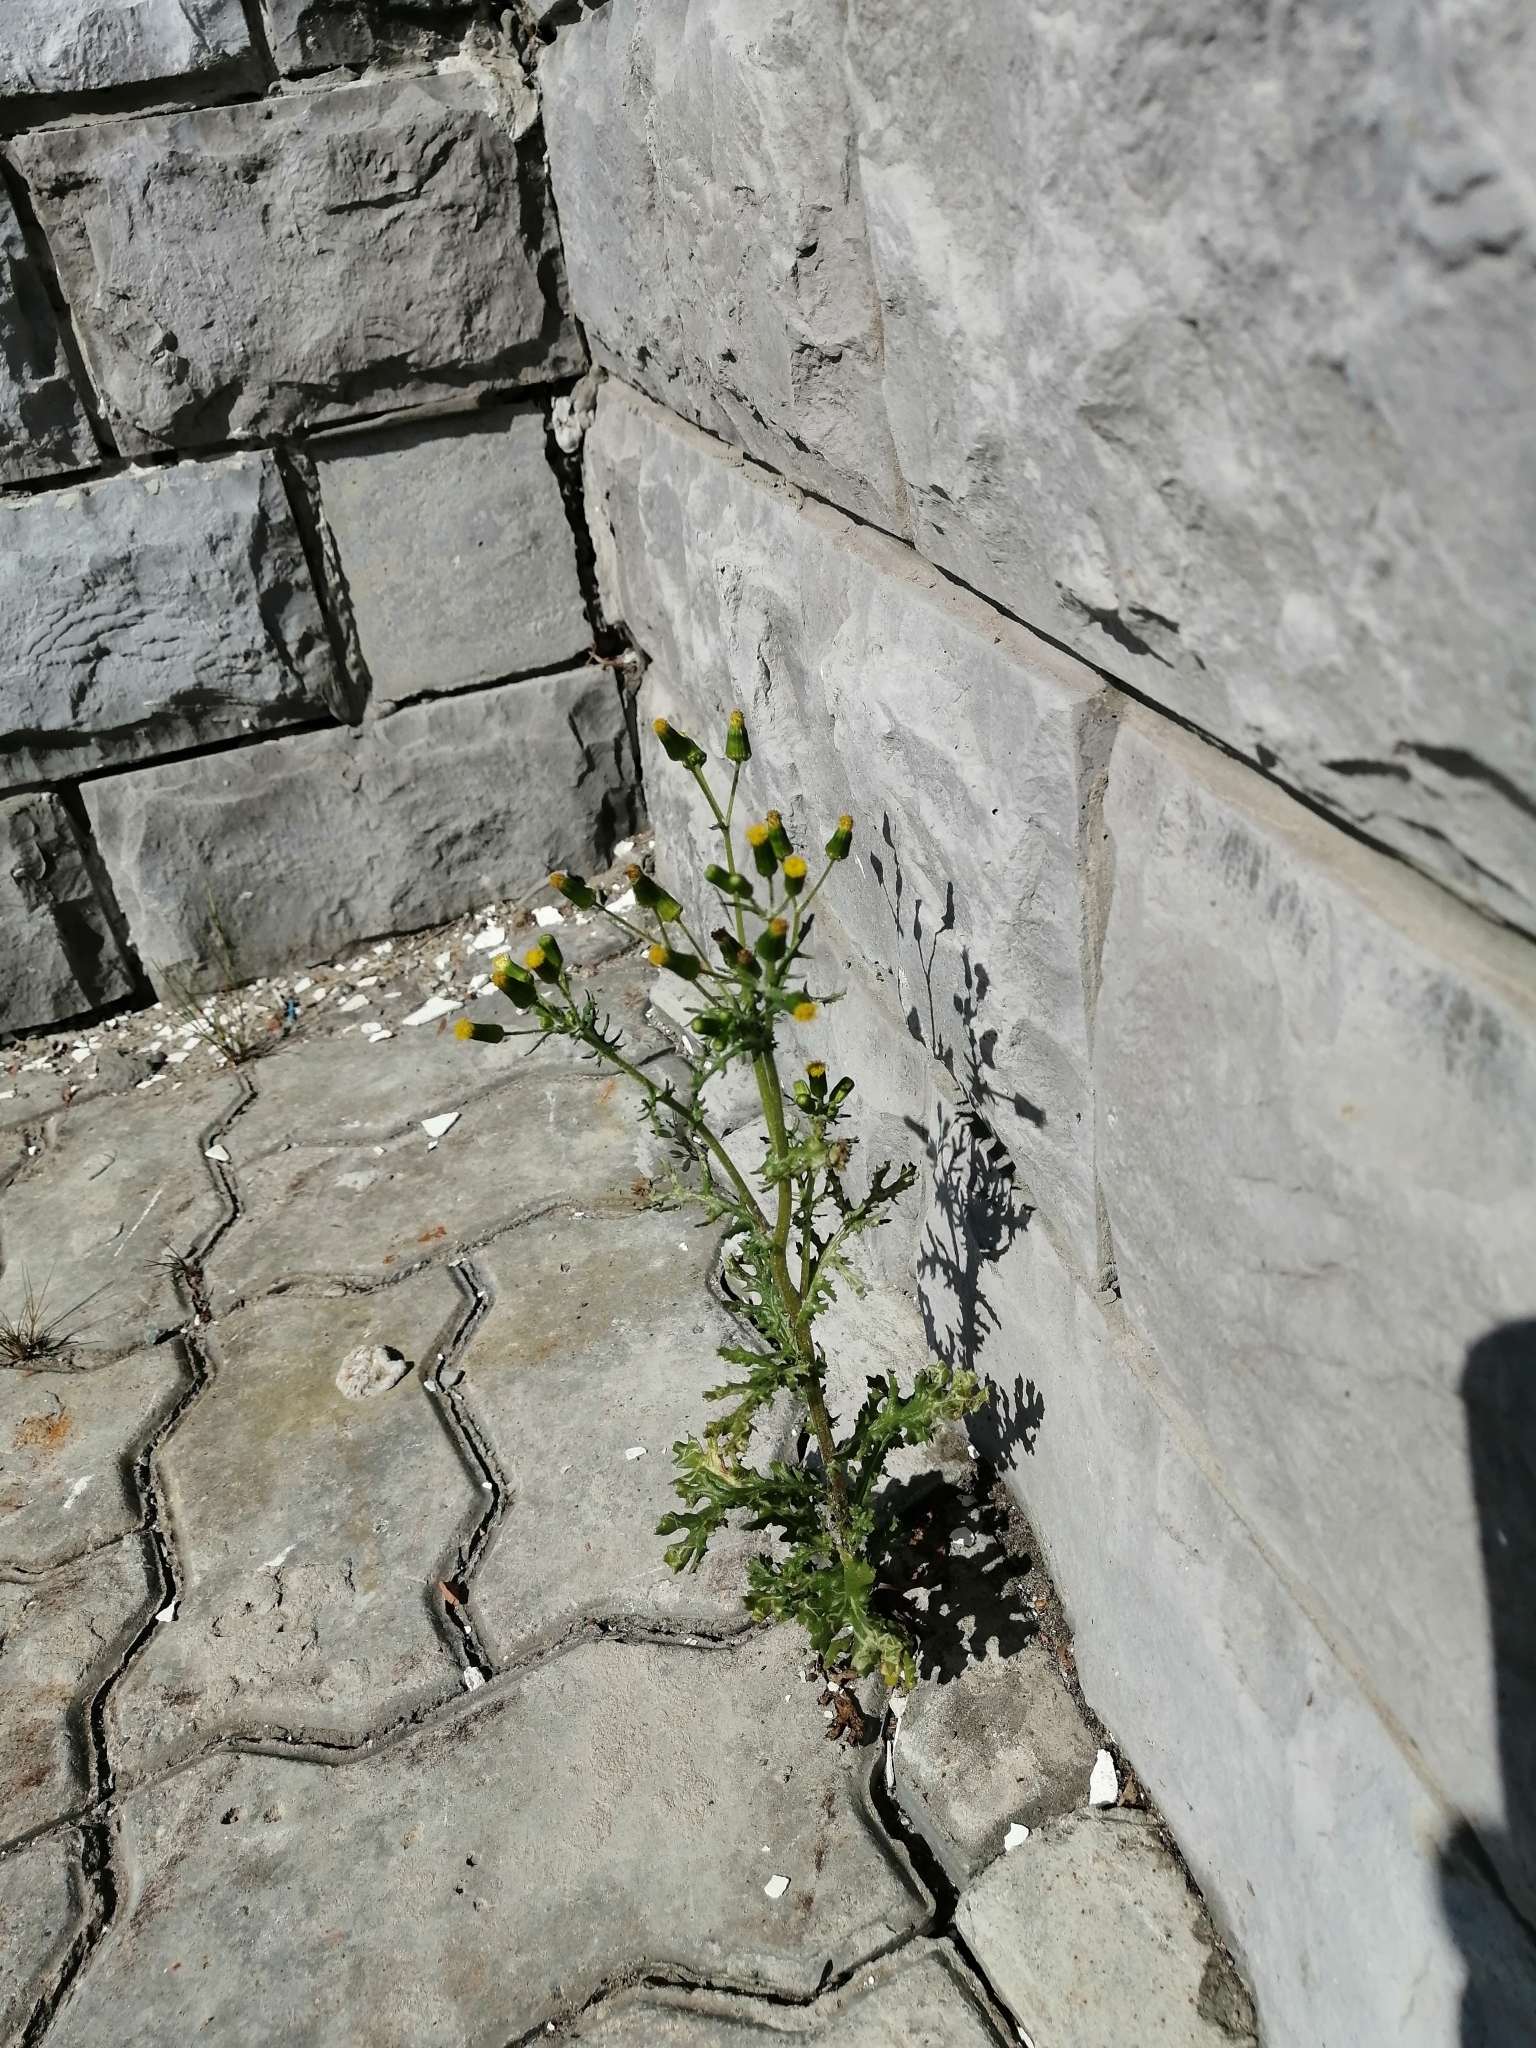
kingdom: Plantae
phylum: Tracheophyta
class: Magnoliopsida
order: Asterales
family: Asteraceae
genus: Senecio
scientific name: Senecio vulgaris
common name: Old-man-in-the-spring
